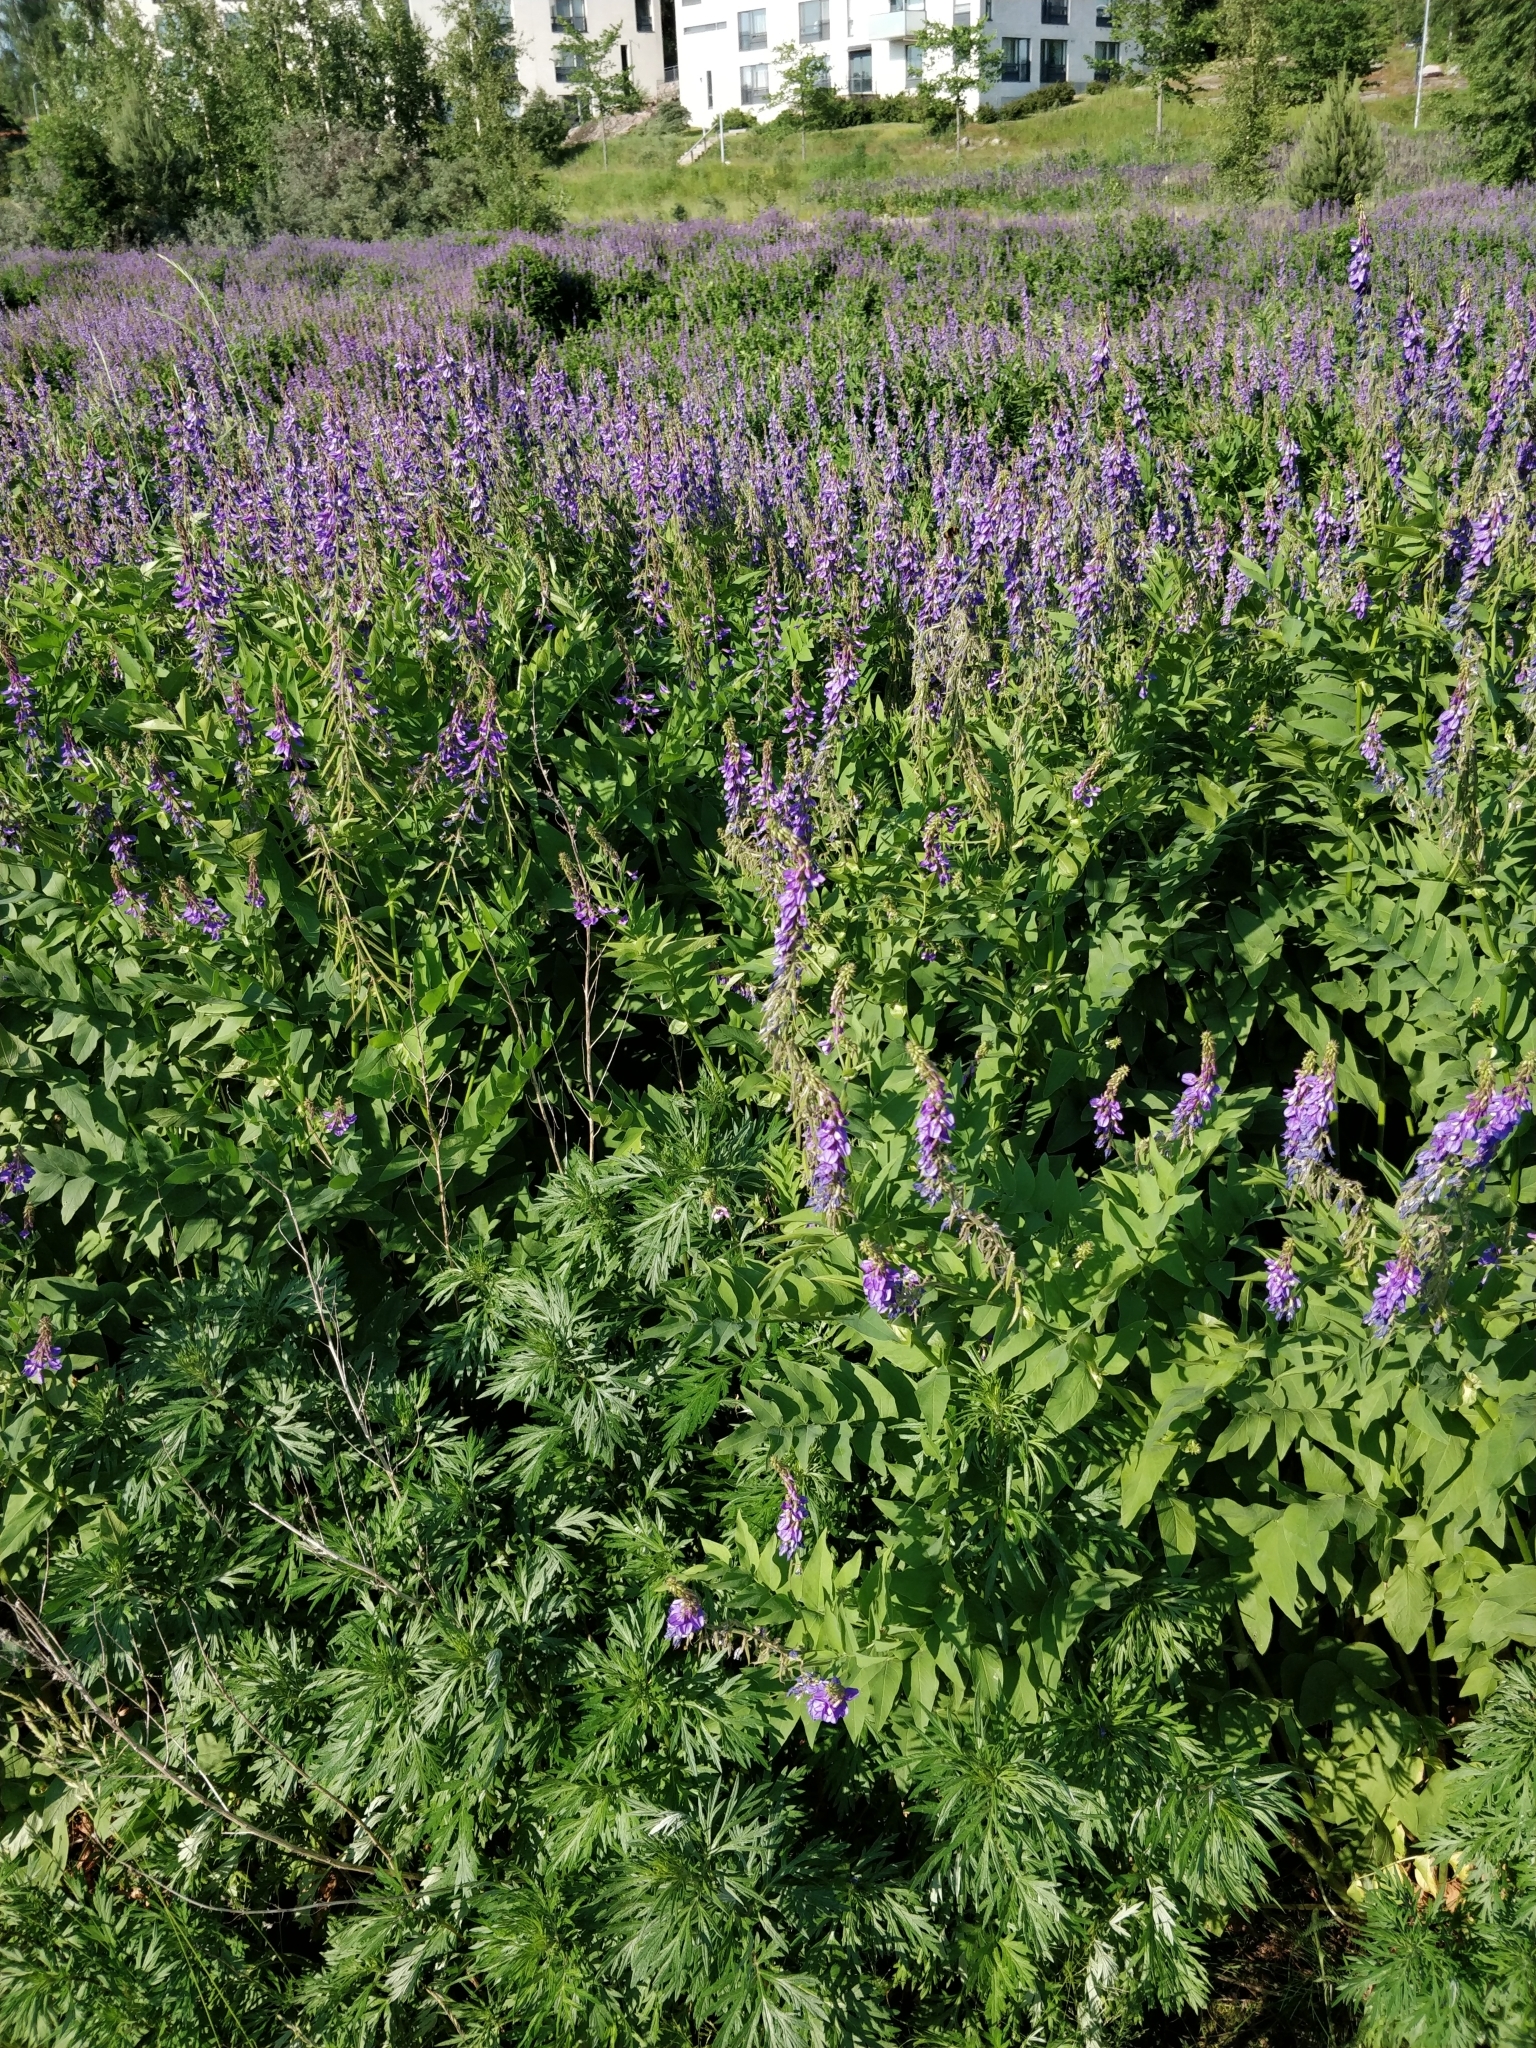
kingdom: Plantae
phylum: Tracheophyta
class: Magnoliopsida
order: Fabales
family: Fabaceae
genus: Galega
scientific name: Galega orientalis
